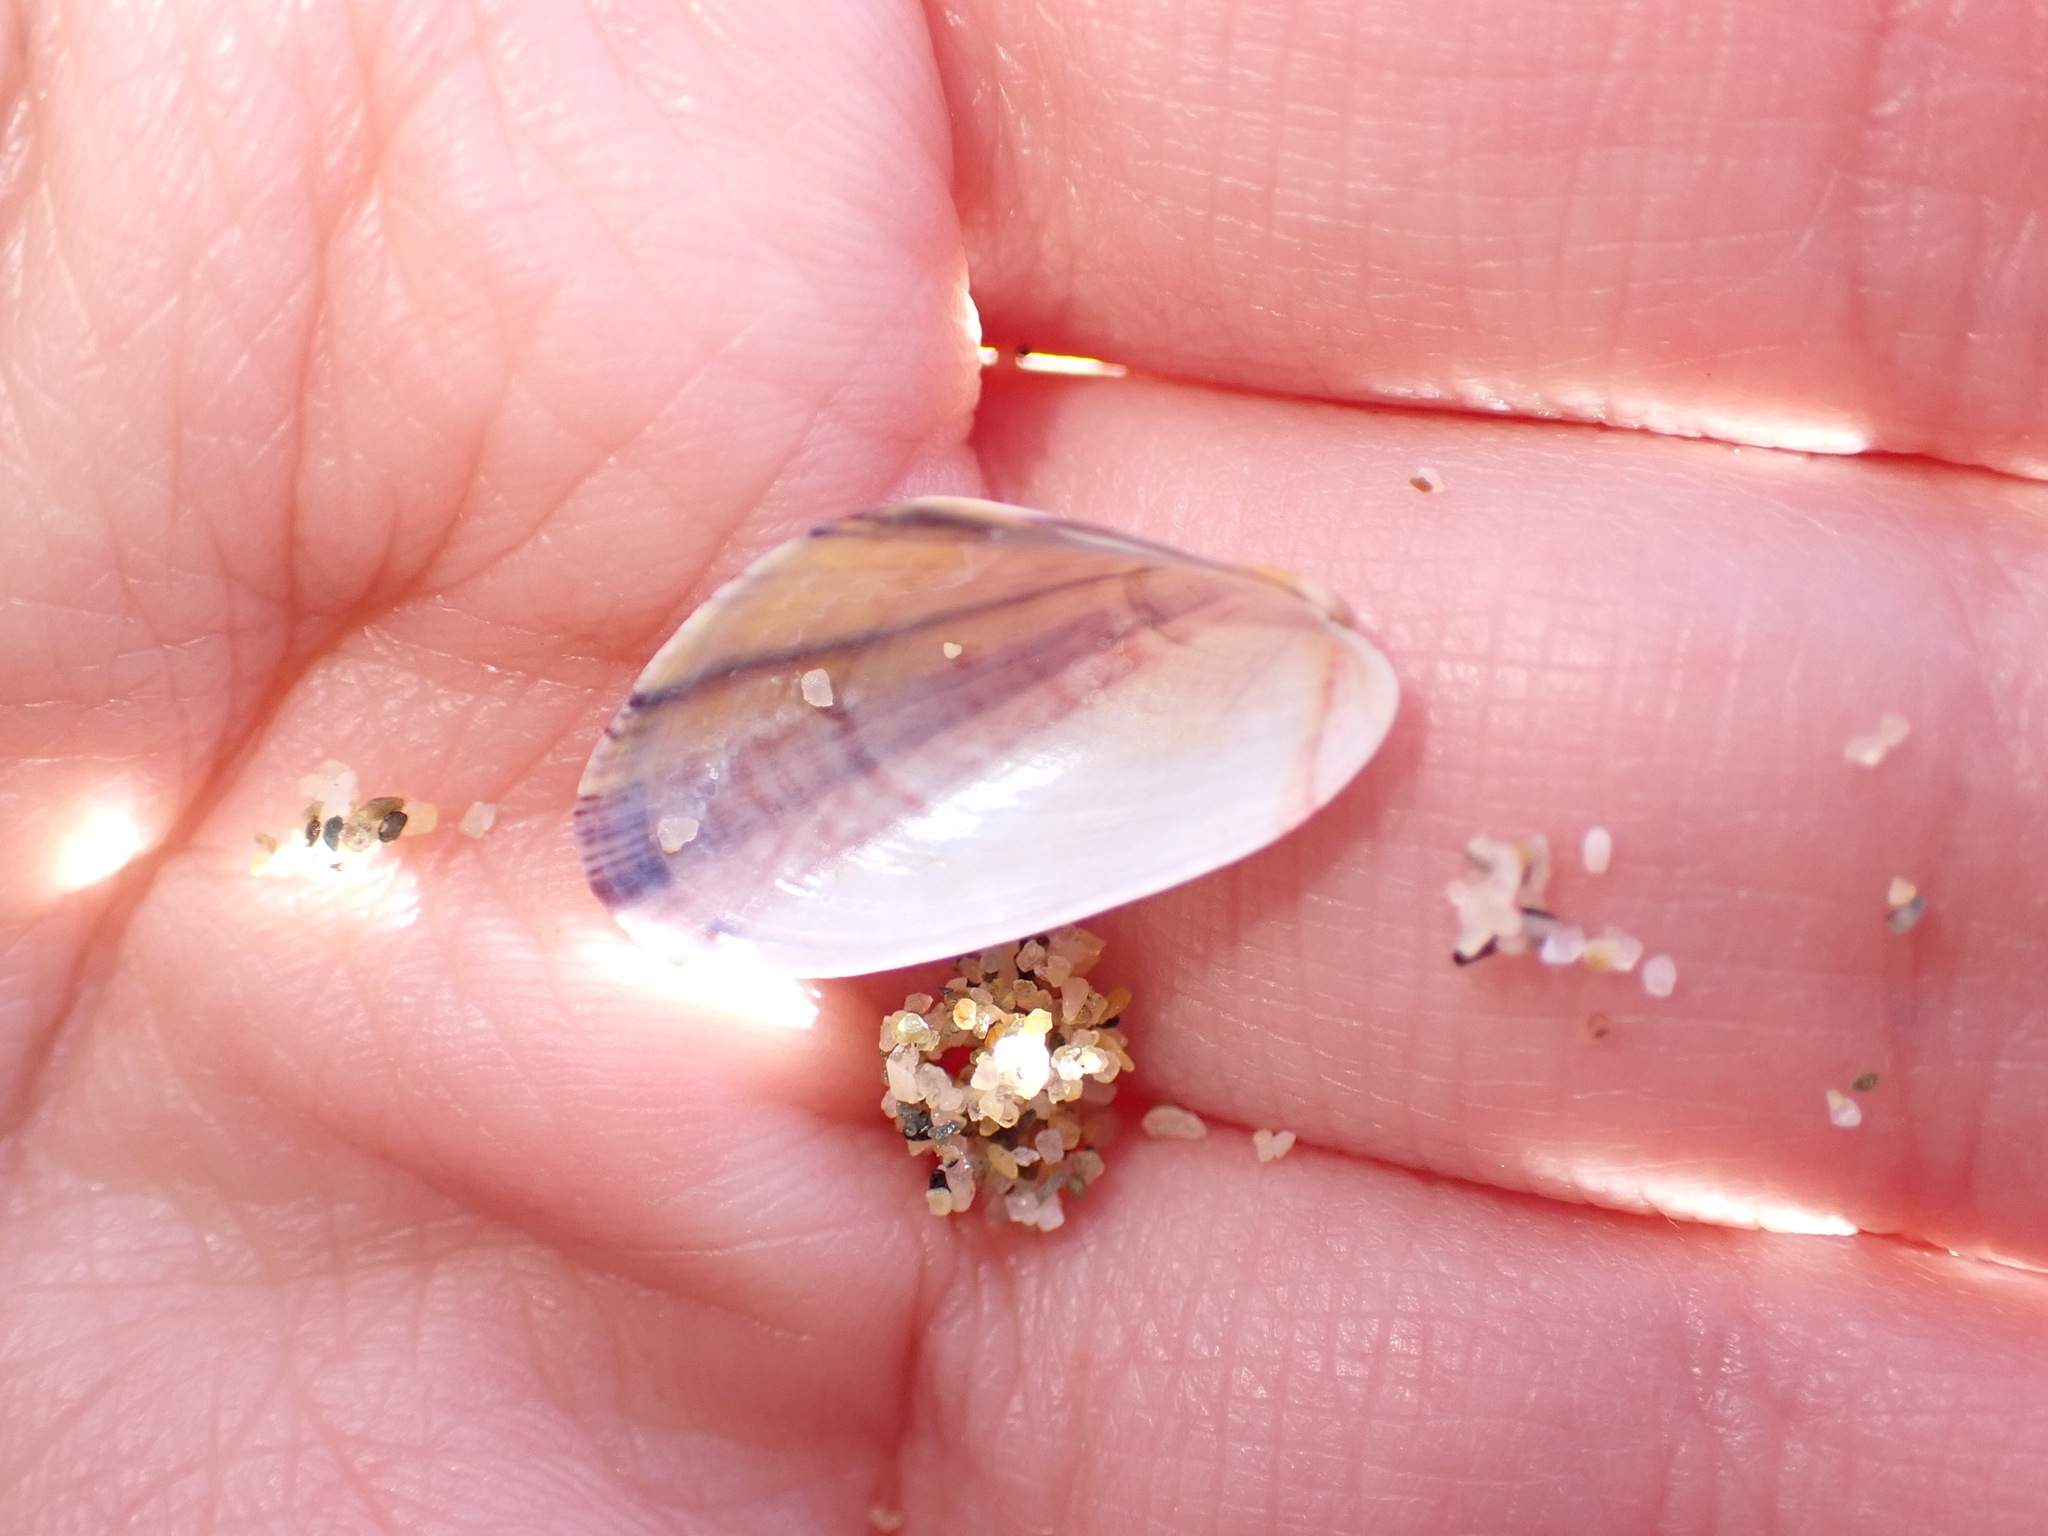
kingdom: Animalia
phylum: Mollusca
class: Bivalvia
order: Mytilida
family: Mytilidae
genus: Modiolus
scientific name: Modiolus adriaticus
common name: Adriatic mussel
